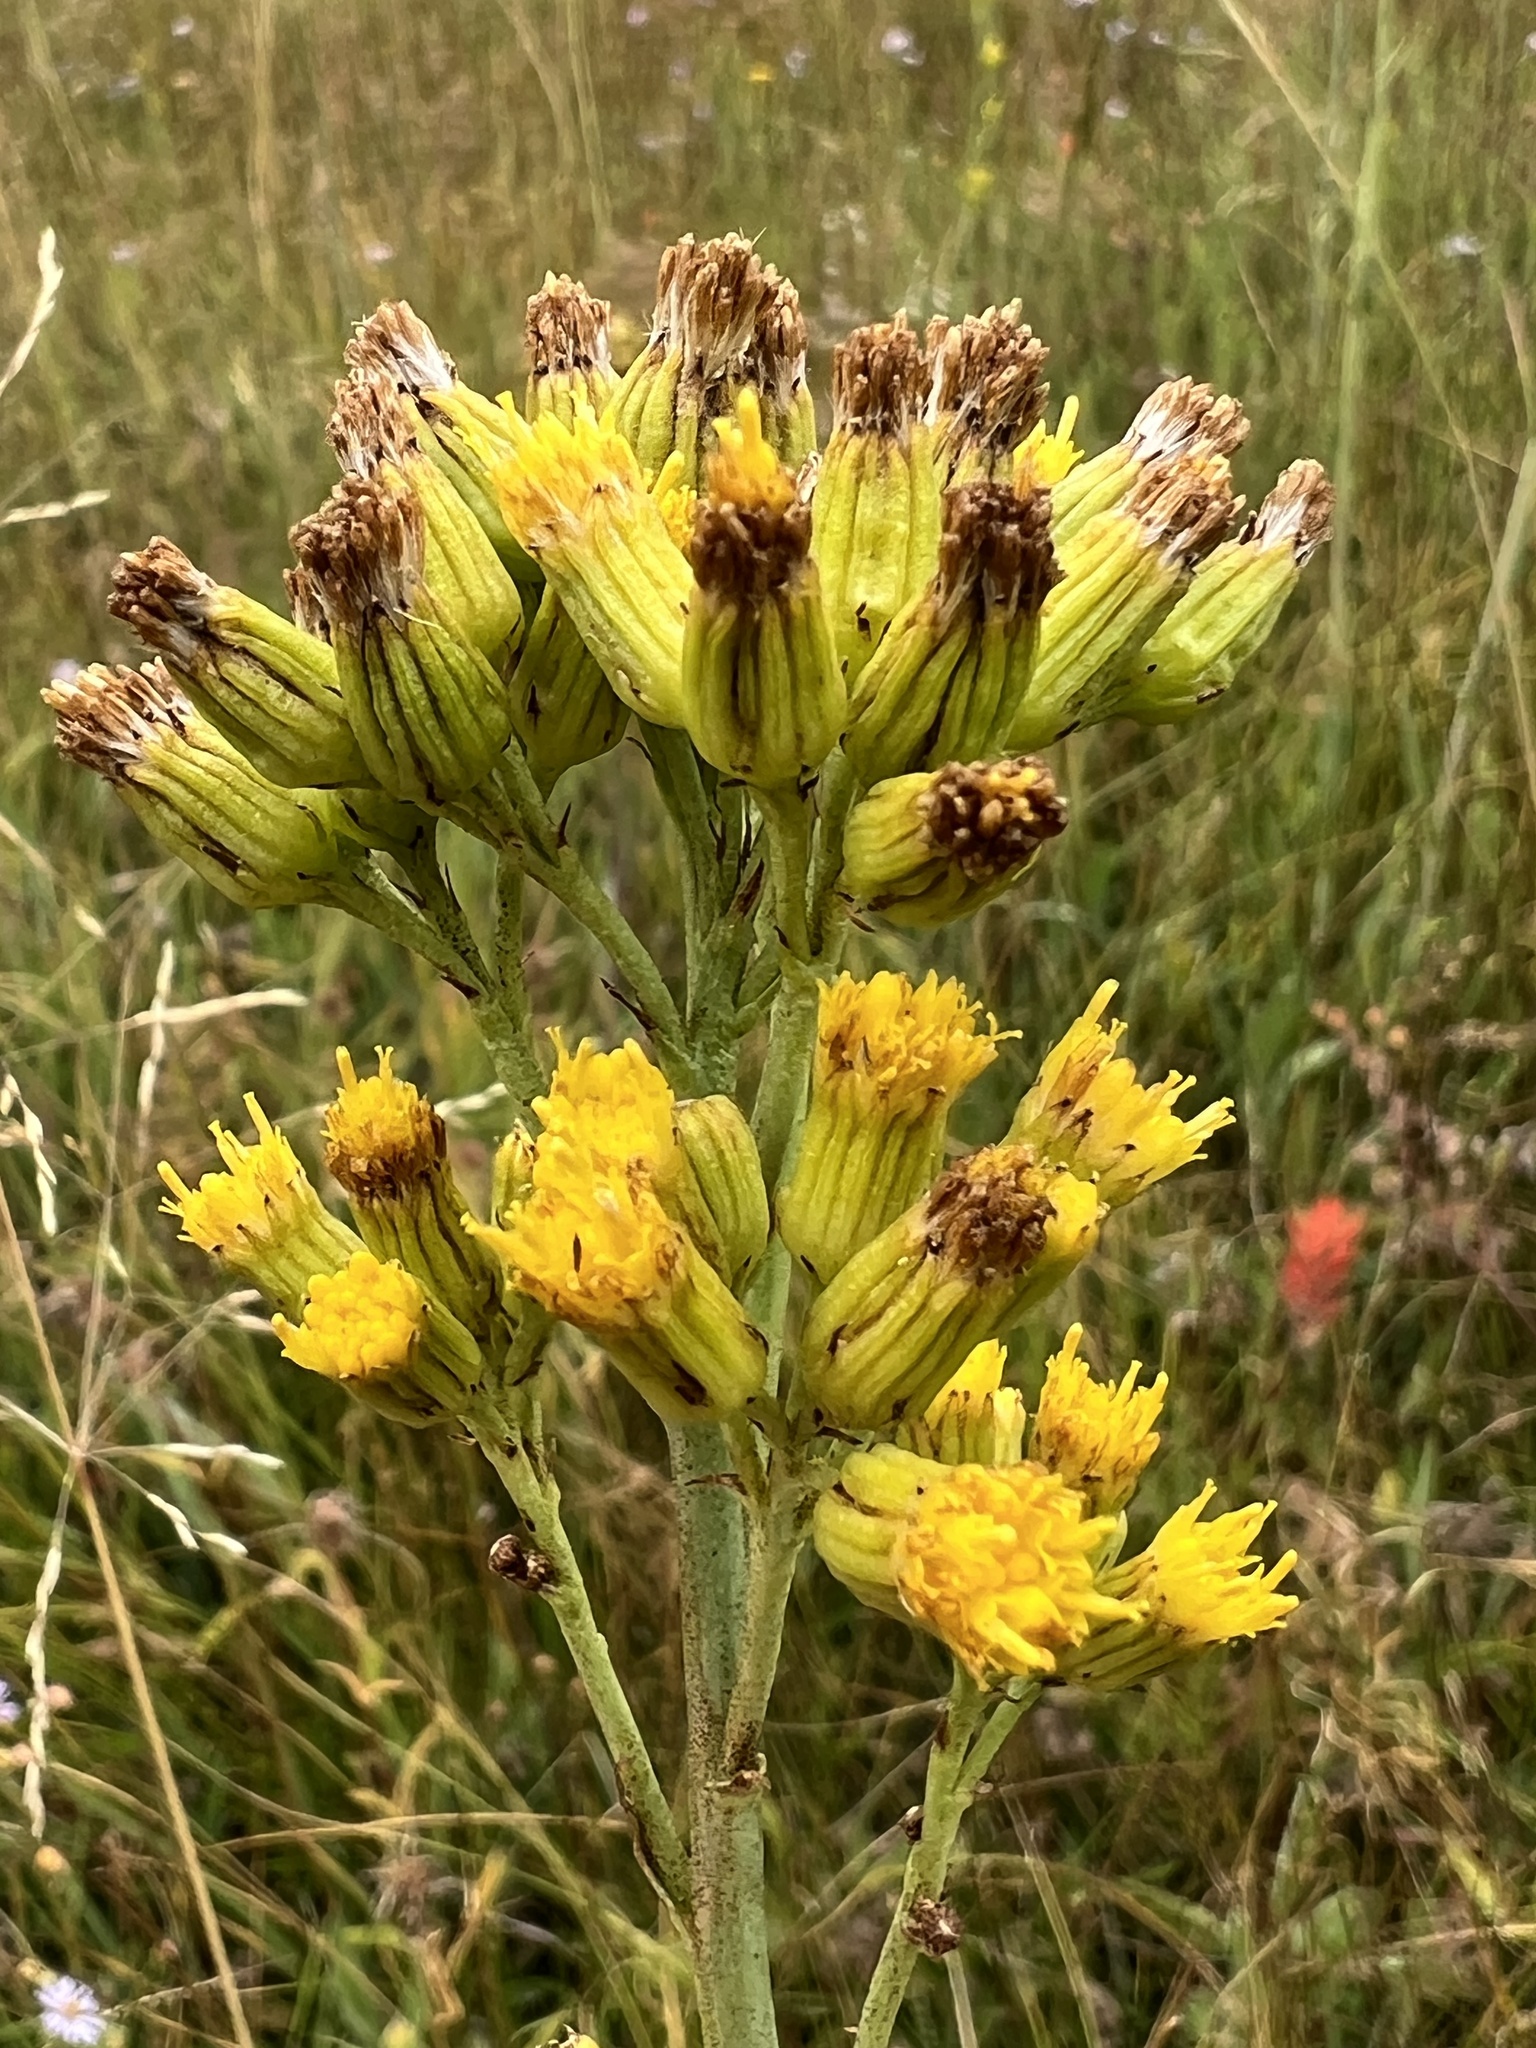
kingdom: Plantae
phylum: Tracheophyta
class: Magnoliopsida
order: Asterales
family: Asteraceae
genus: Senecio
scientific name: Senecio hydrophilus
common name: Water ragwort
